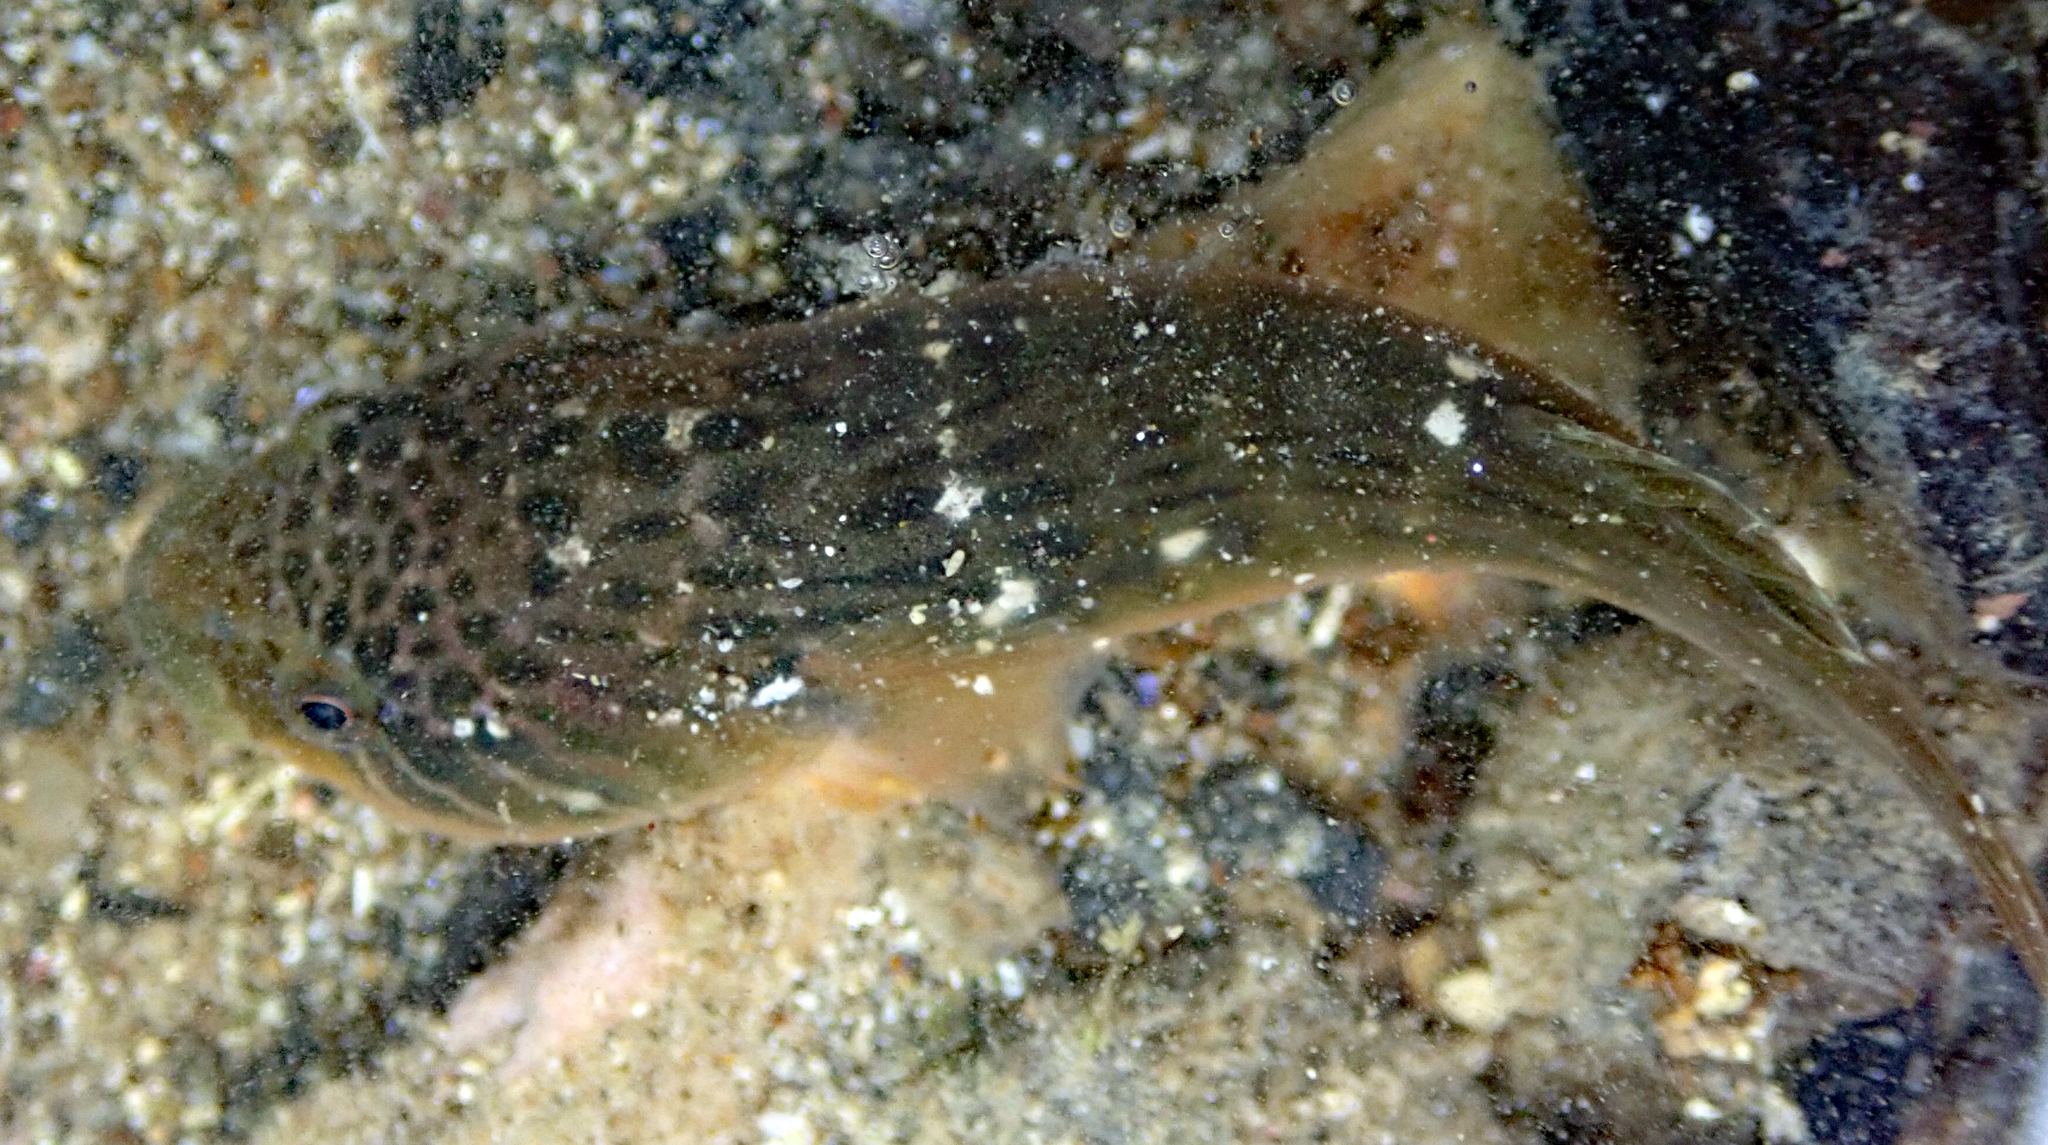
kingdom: Animalia
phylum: Chordata
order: Gobiesociformes
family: Gobiesocidae
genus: Trachelochismus
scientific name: Trachelochismus pinnulatus
